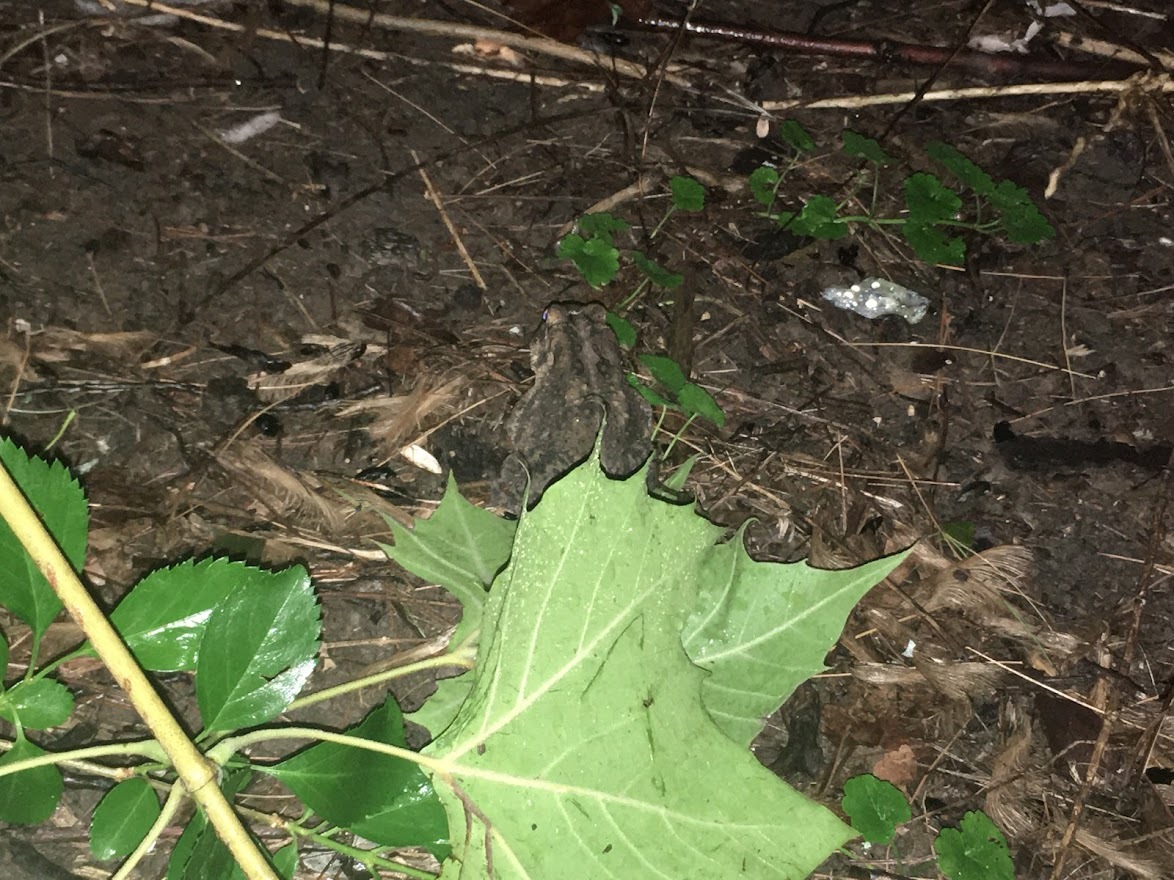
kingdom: Animalia
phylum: Chordata
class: Amphibia
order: Anura
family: Bufonidae
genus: Anaxyrus
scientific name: Anaxyrus americanus
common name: American toad
